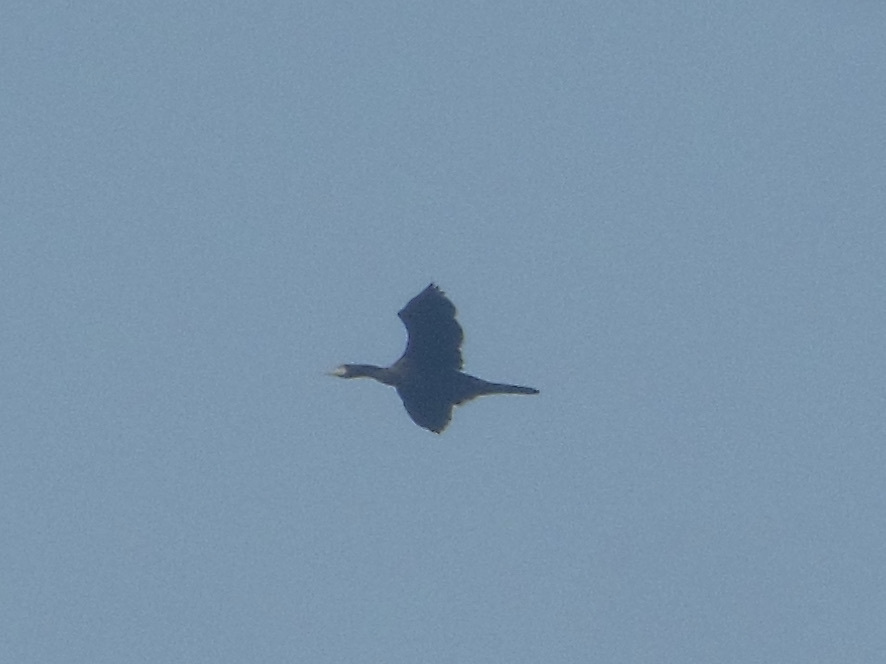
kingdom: Animalia
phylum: Chordata
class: Aves
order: Suliformes
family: Phalacrocoracidae
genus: Phalacrocorax
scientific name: Phalacrocorax carbo
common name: Great cormorant
